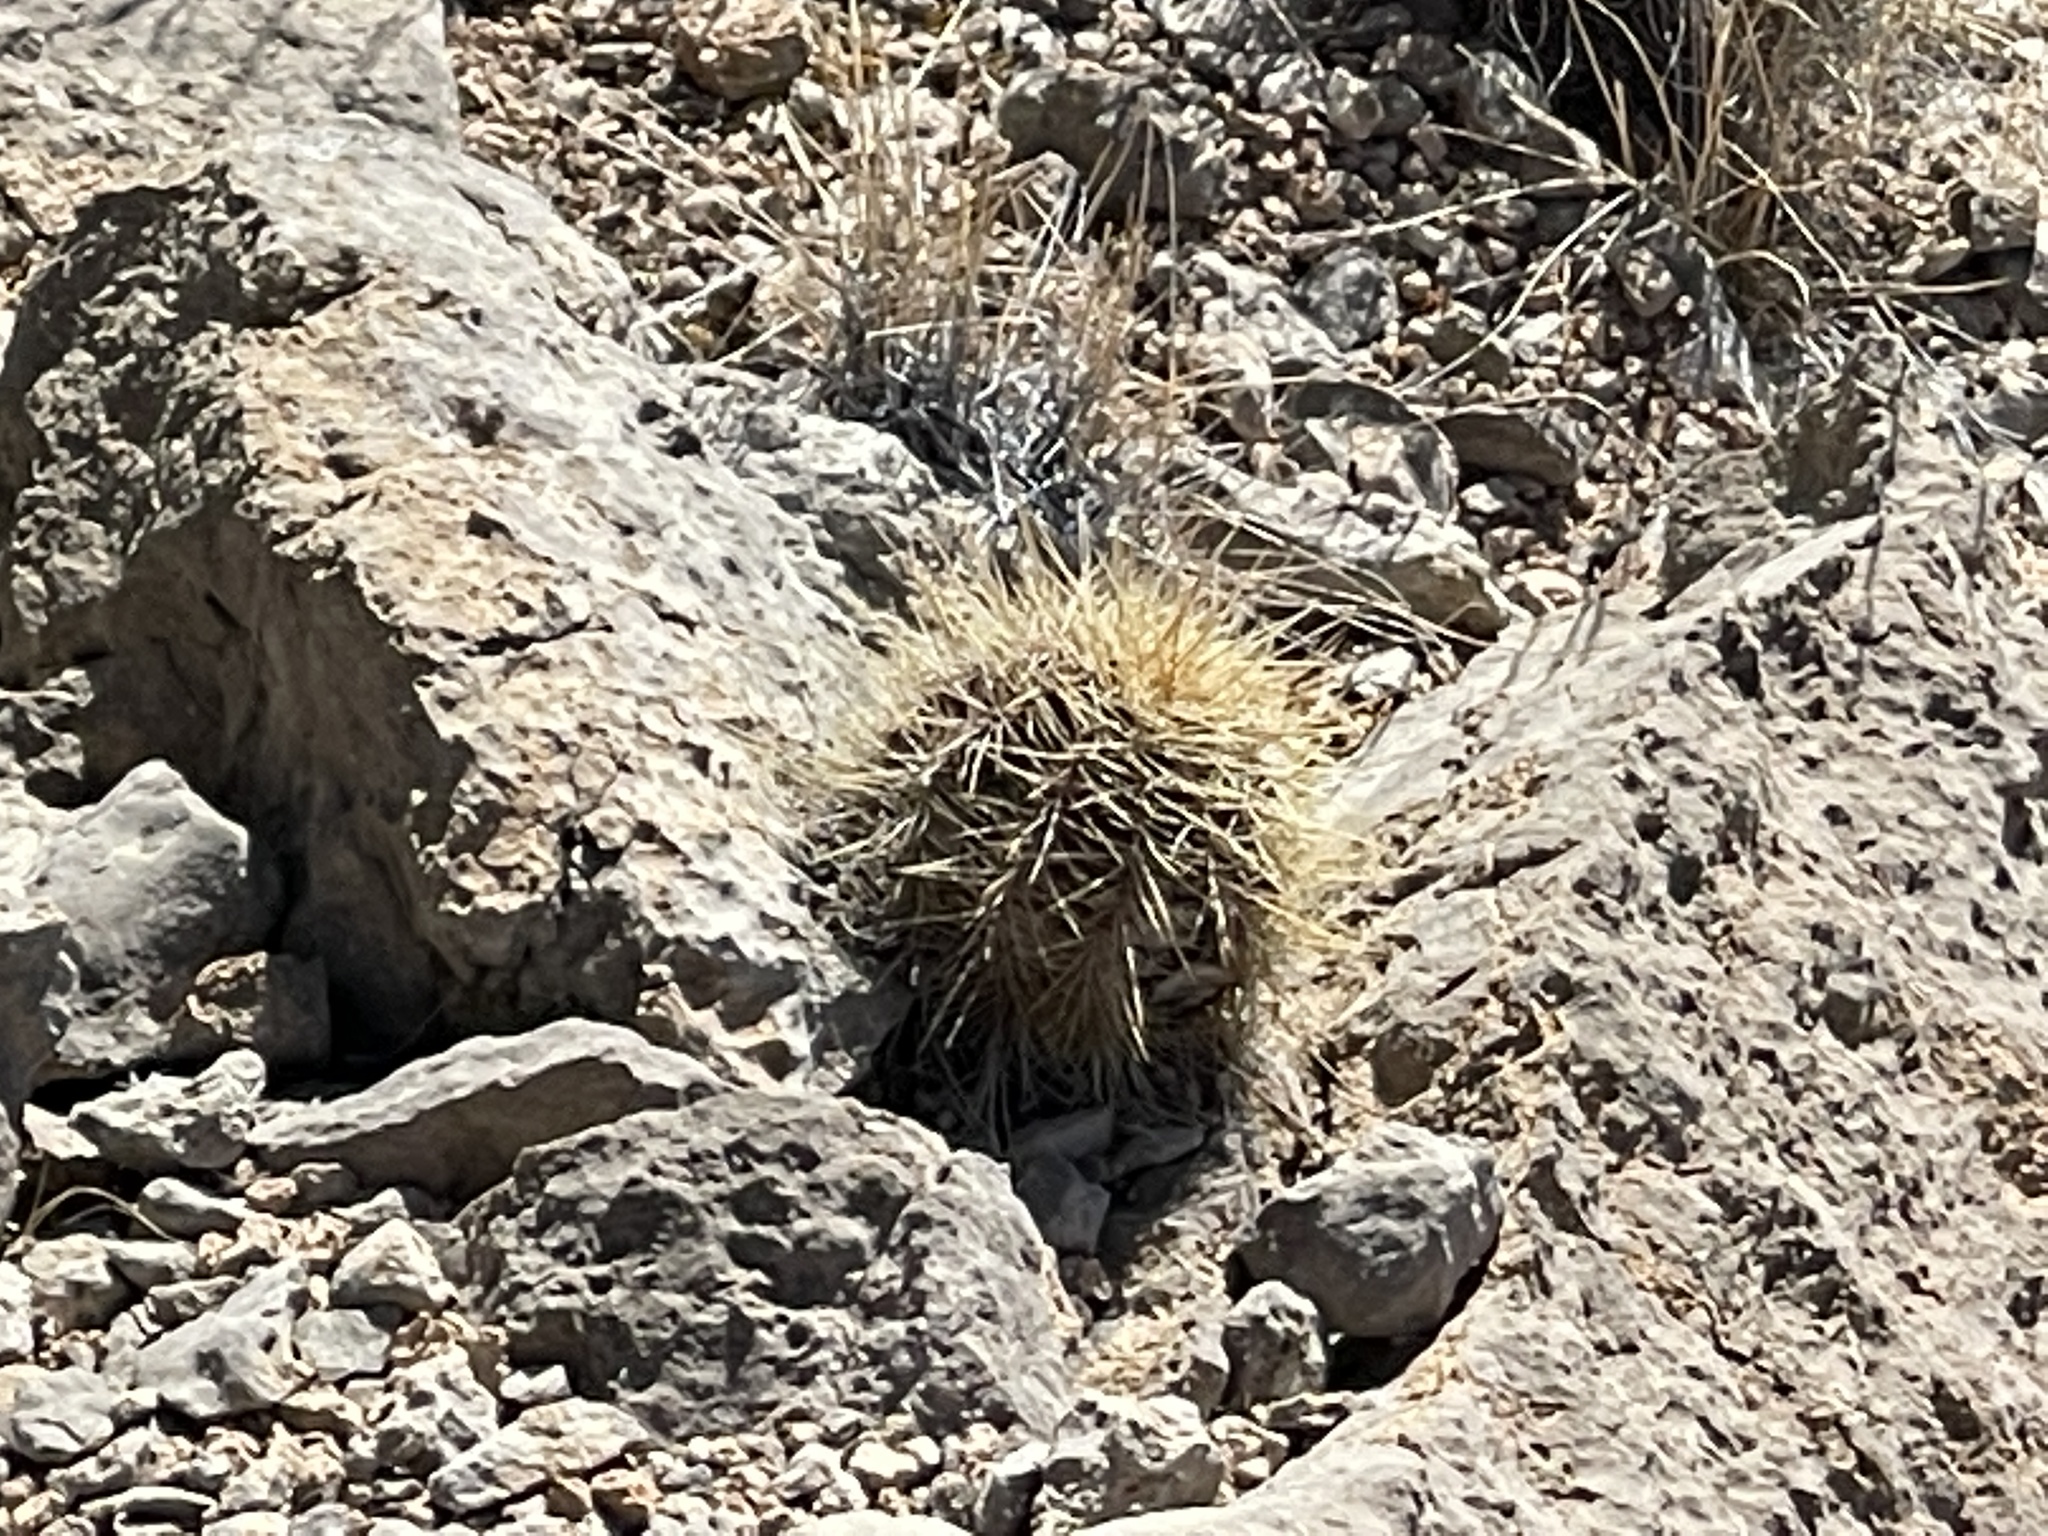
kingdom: Plantae
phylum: Tracheophyta
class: Magnoliopsida
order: Caryophyllales
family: Cactaceae
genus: Echinocereus
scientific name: Echinocereus coccineus
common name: Scarlet hedgehog cactus
